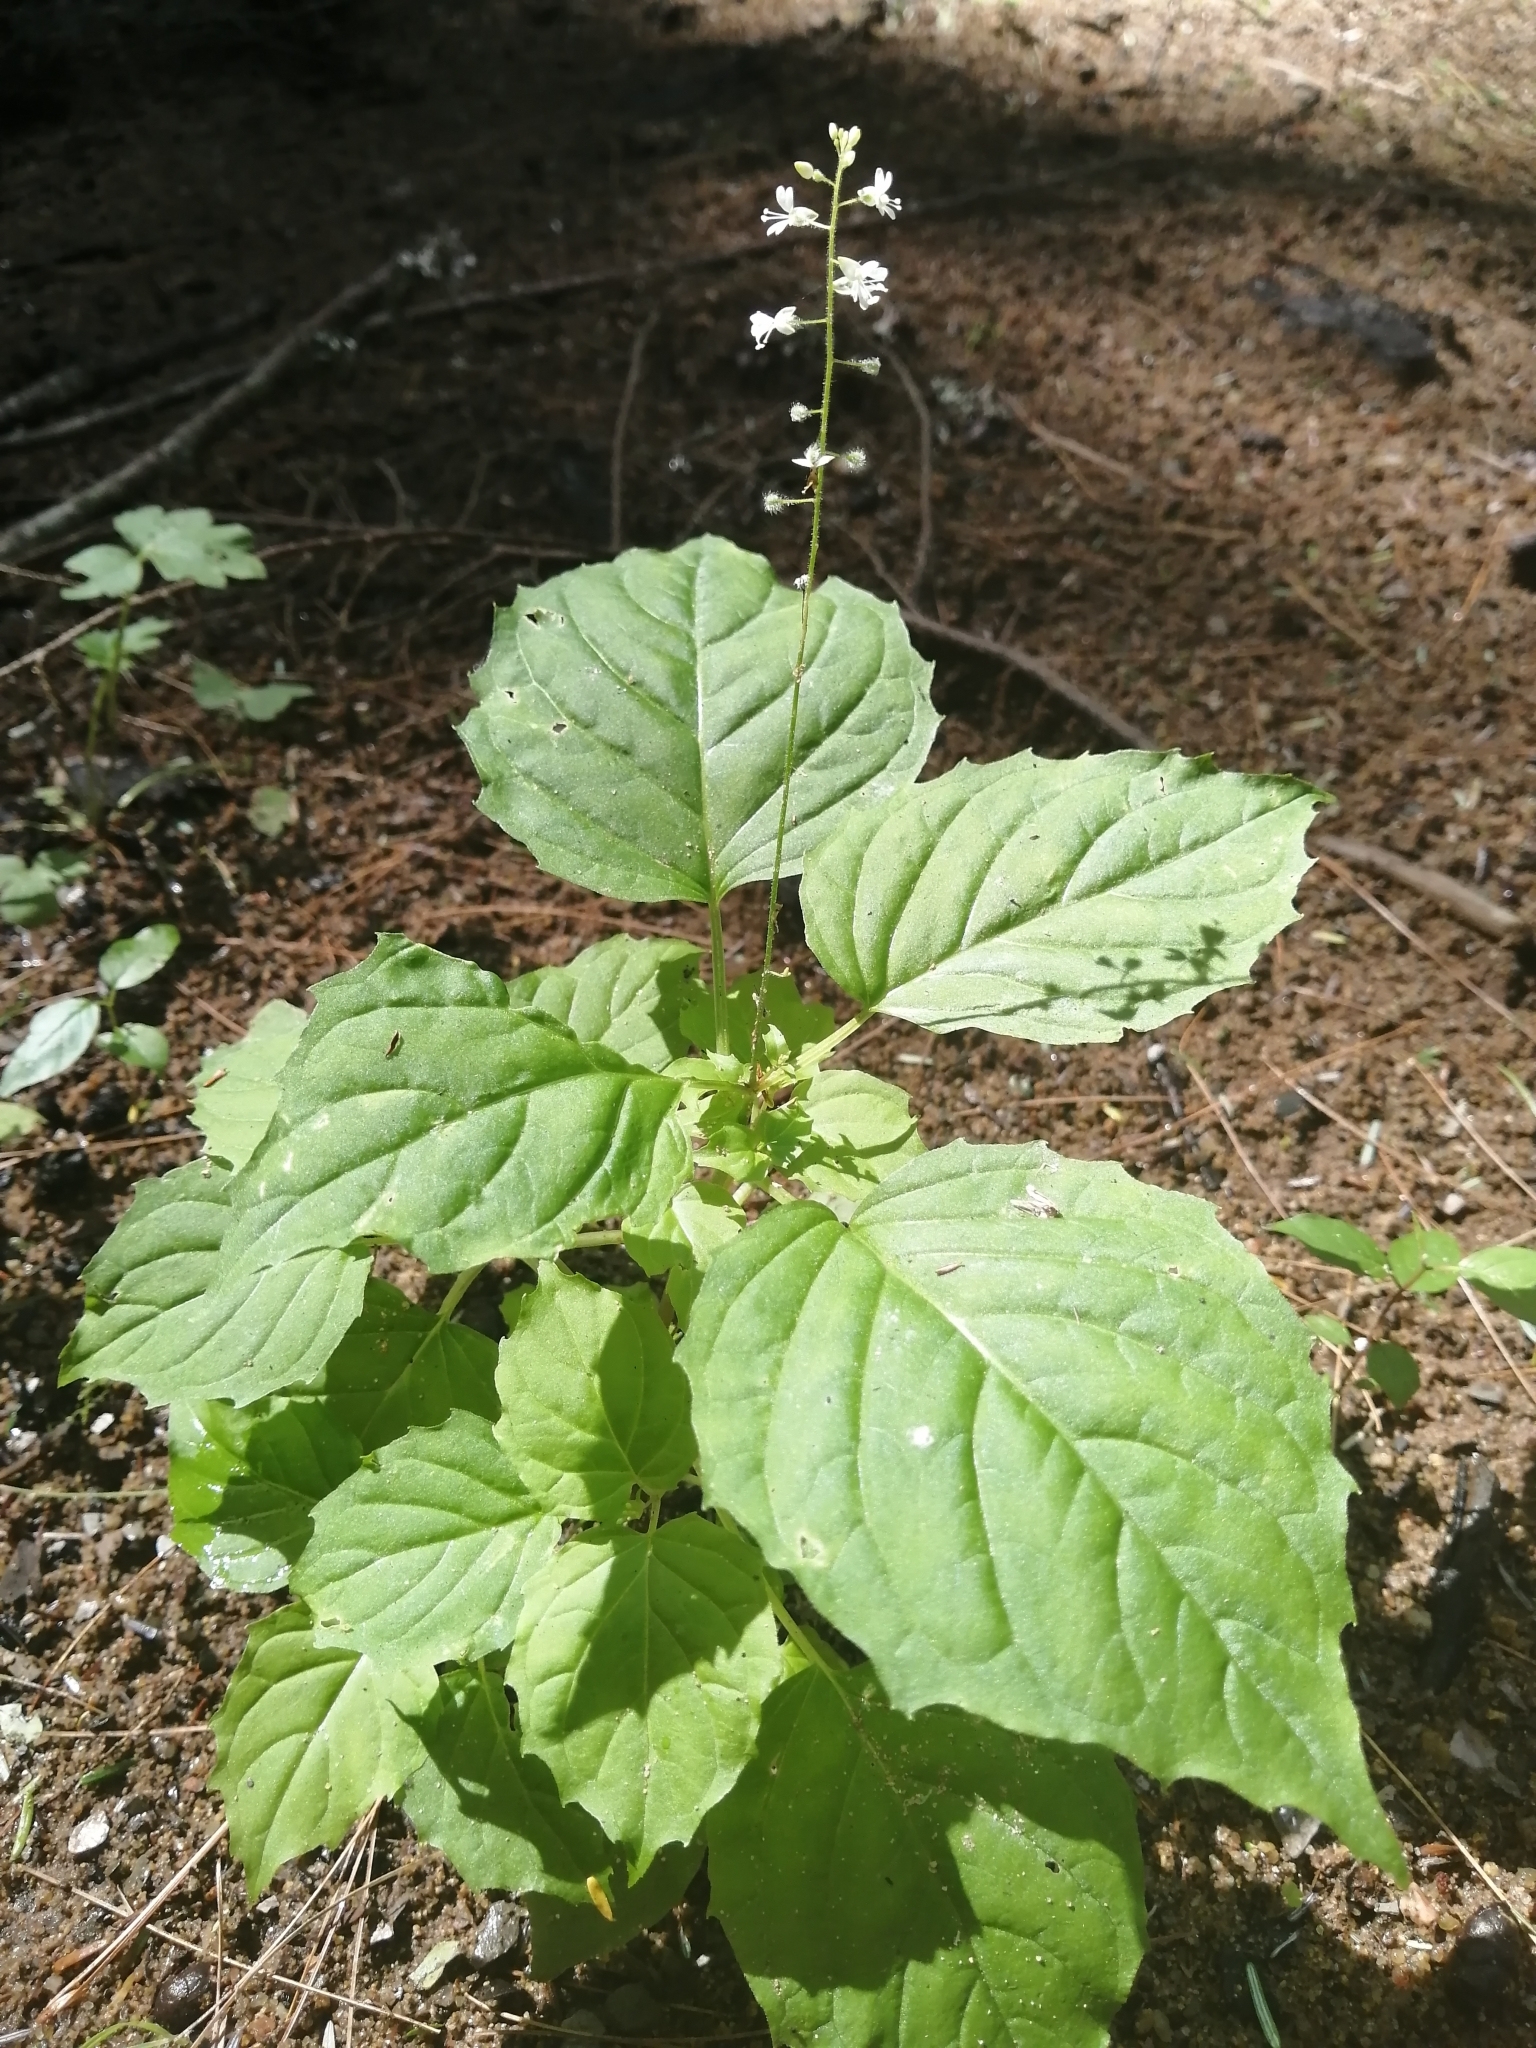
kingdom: Plantae
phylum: Tracheophyta
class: Magnoliopsida
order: Myrtales
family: Onagraceae
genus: Circaea
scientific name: Circaea alpina
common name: Alpine enchanter's-nightshade
